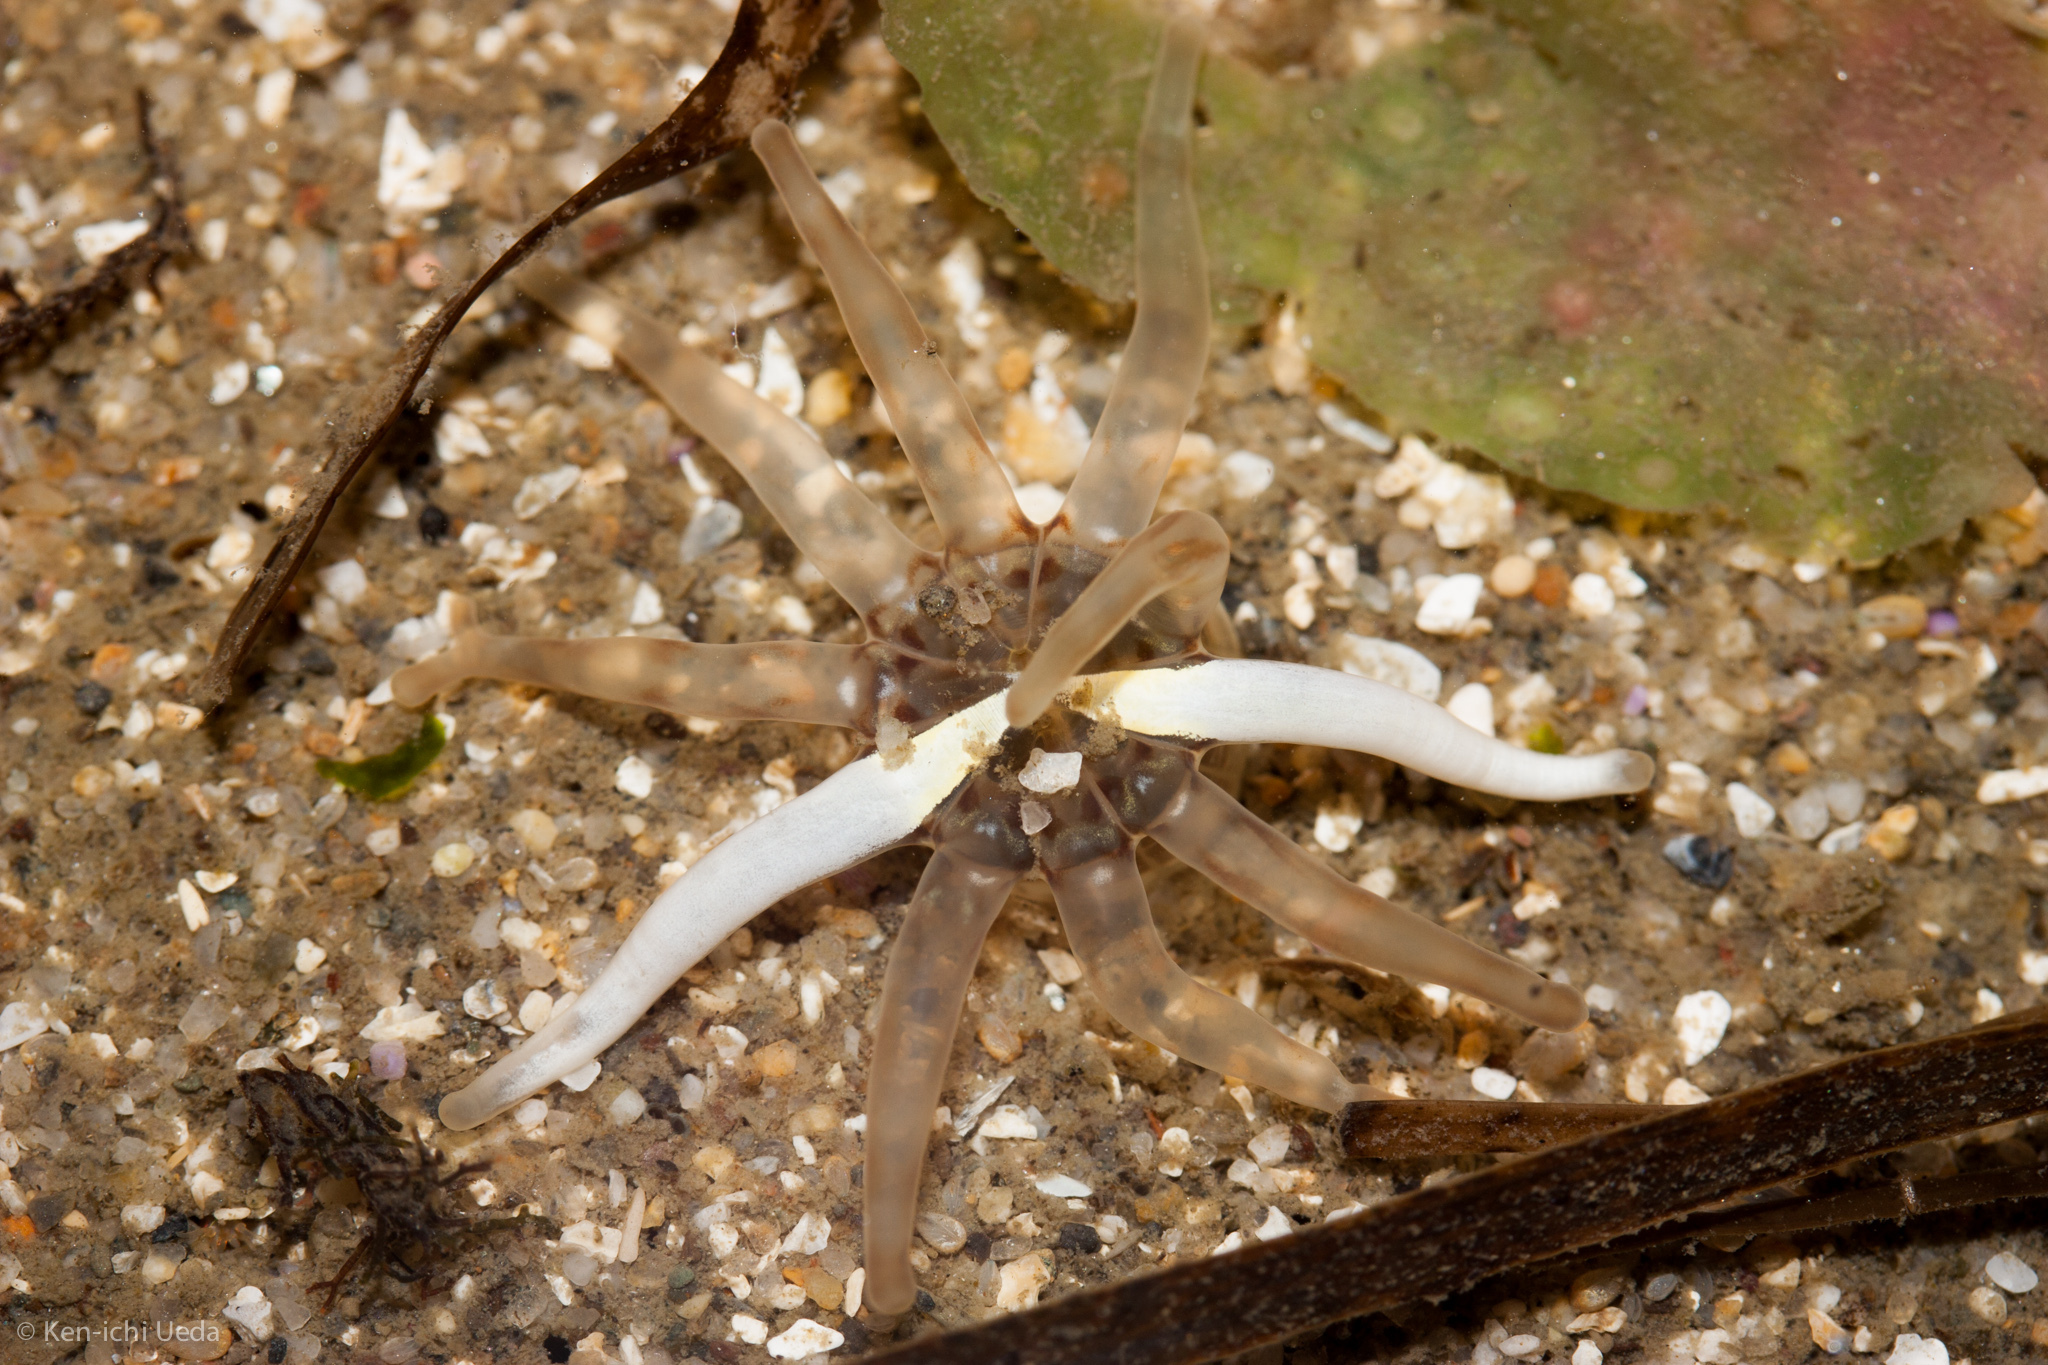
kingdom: Animalia
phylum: Cnidaria
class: Anthozoa
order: Actiniaria
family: Halcampidae
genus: Halcampa
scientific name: Halcampa decemtentaculata
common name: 10-tentacle burrowing anemone
